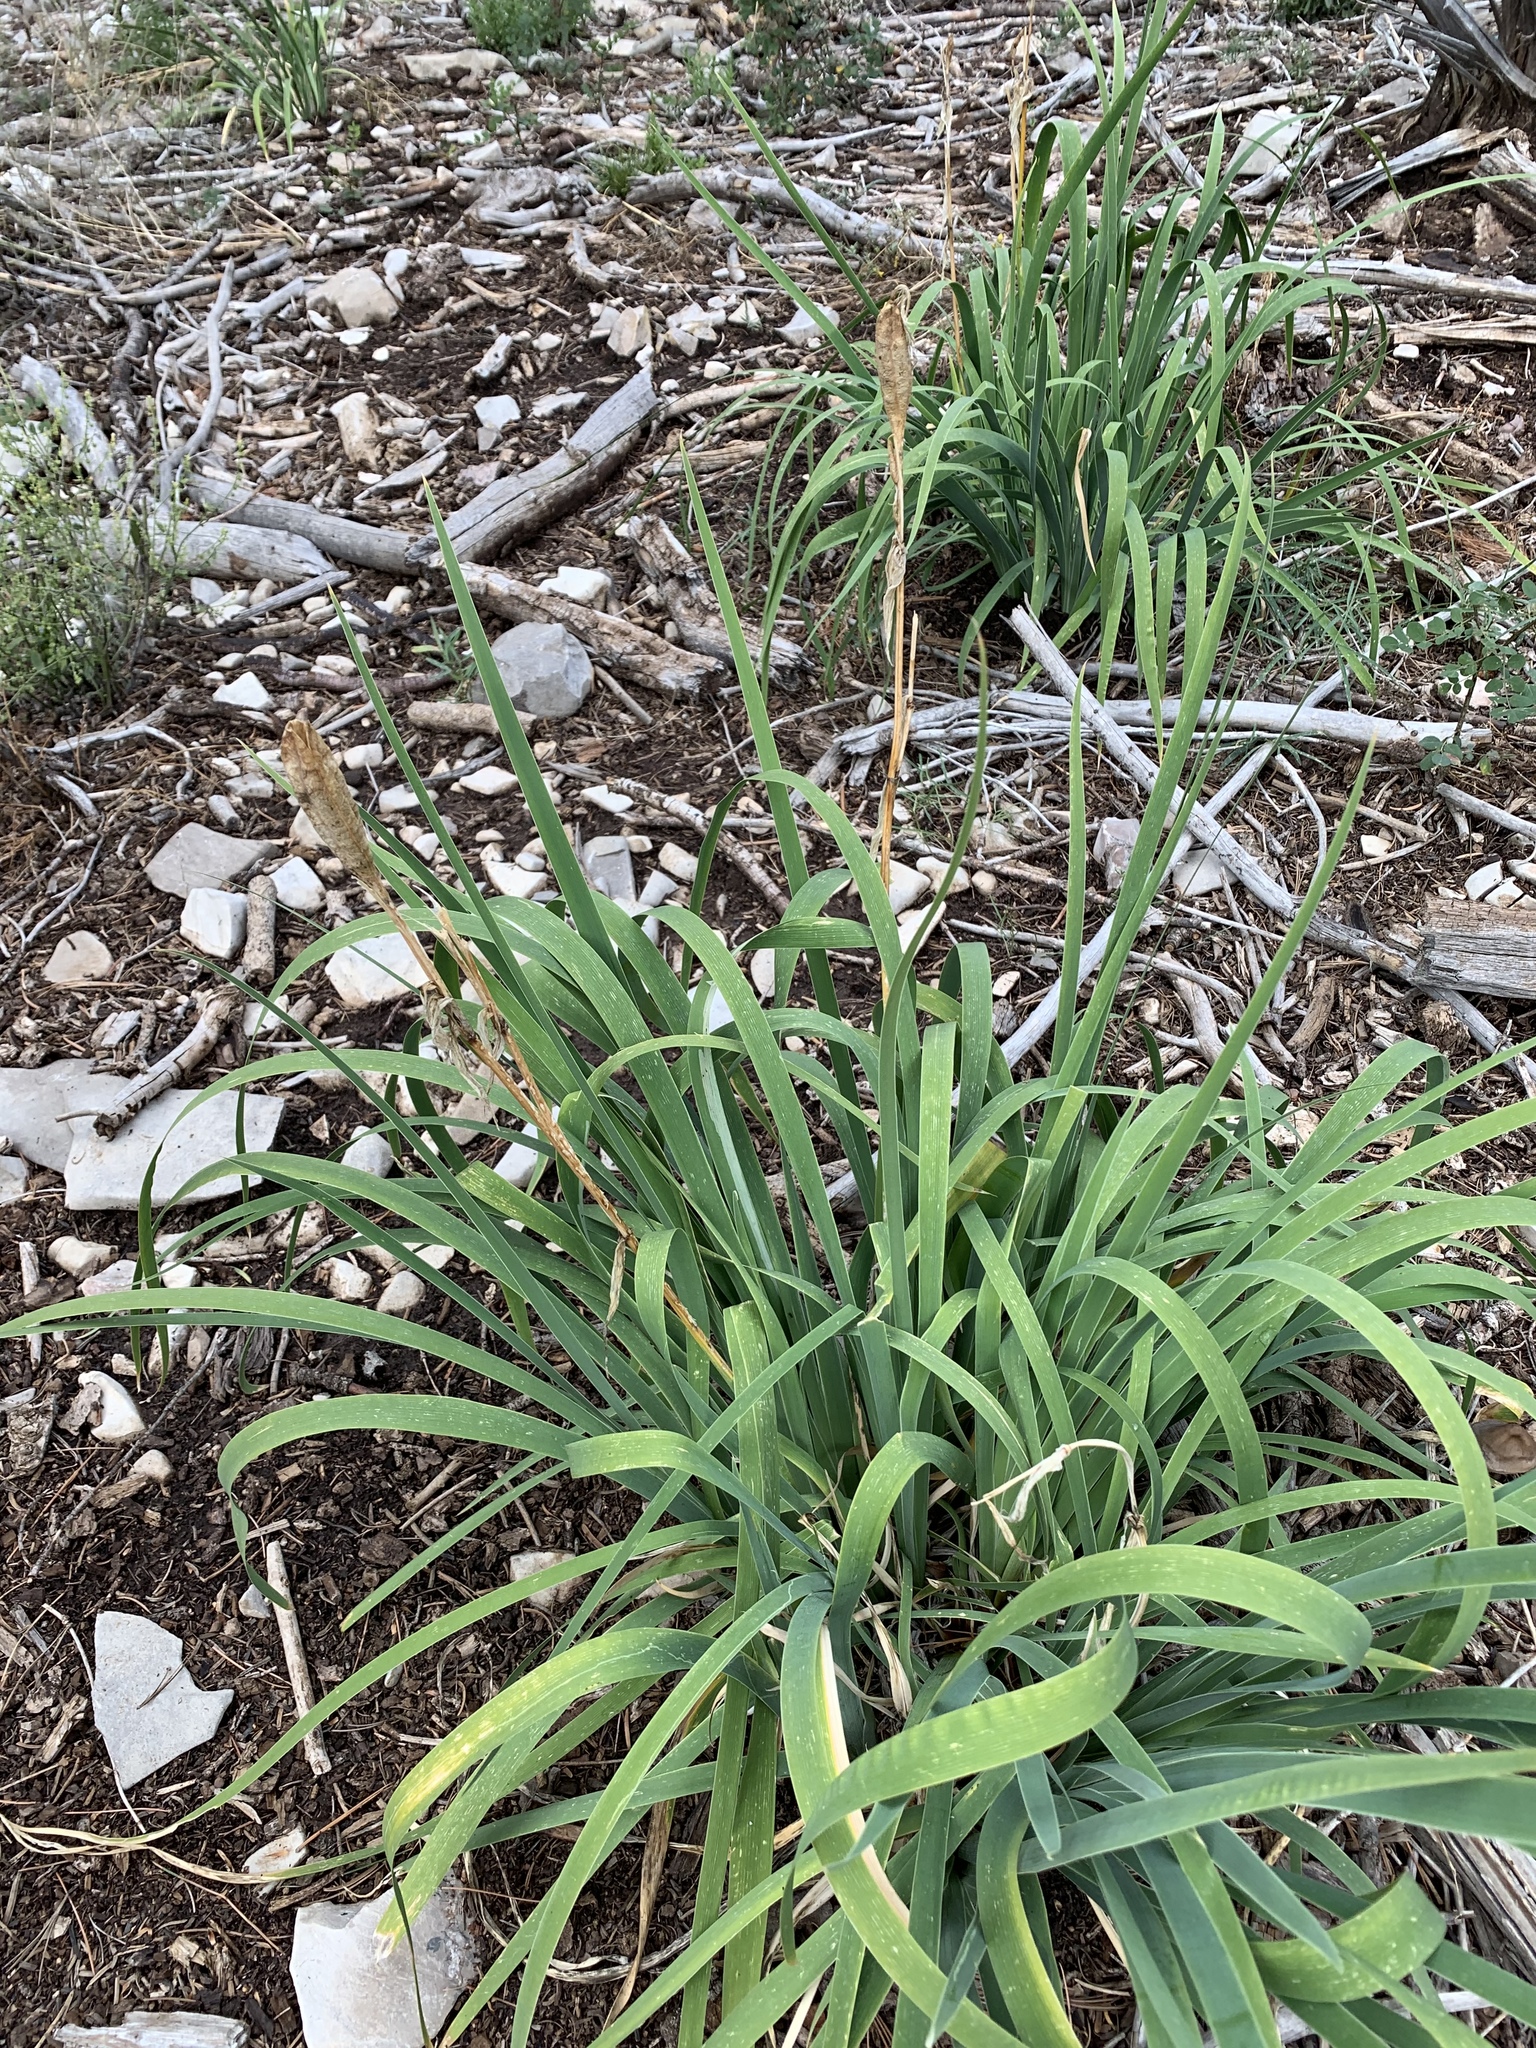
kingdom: Plantae
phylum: Tracheophyta
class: Liliopsida
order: Asparagales
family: Iridaceae
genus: Iris
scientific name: Iris missouriensis
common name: Rocky mountain iris
